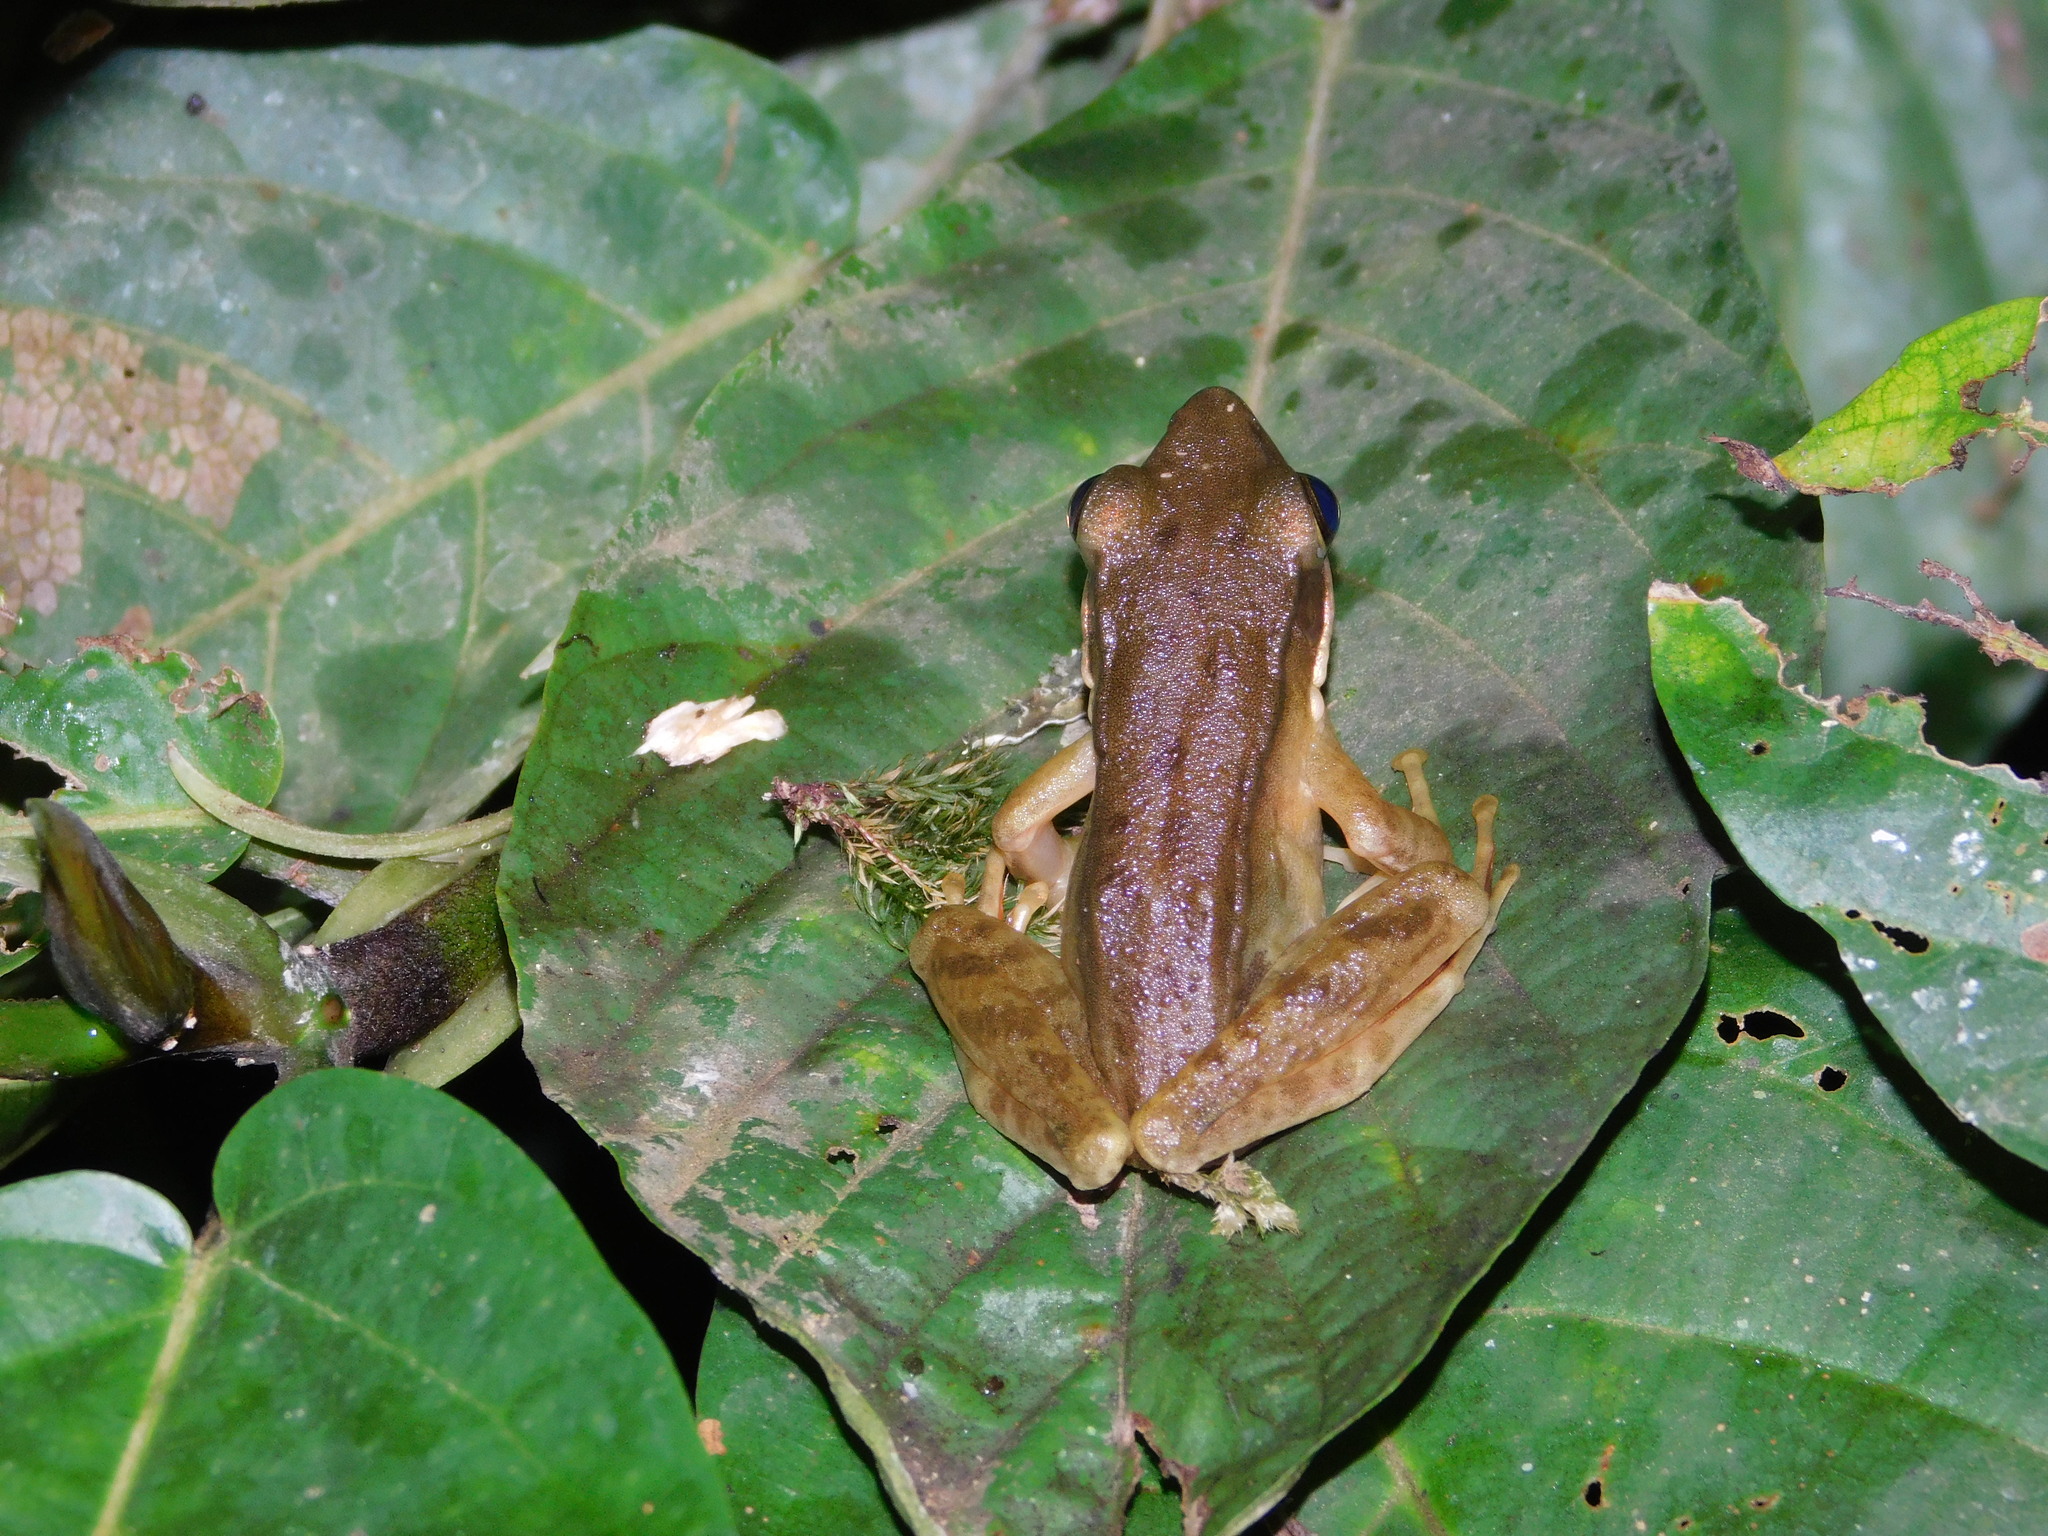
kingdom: Animalia
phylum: Chordata
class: Amphibia
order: Anura
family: Ranidae
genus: Chalcorana
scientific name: Chalcorana chalconota
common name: Schlegel's frog
